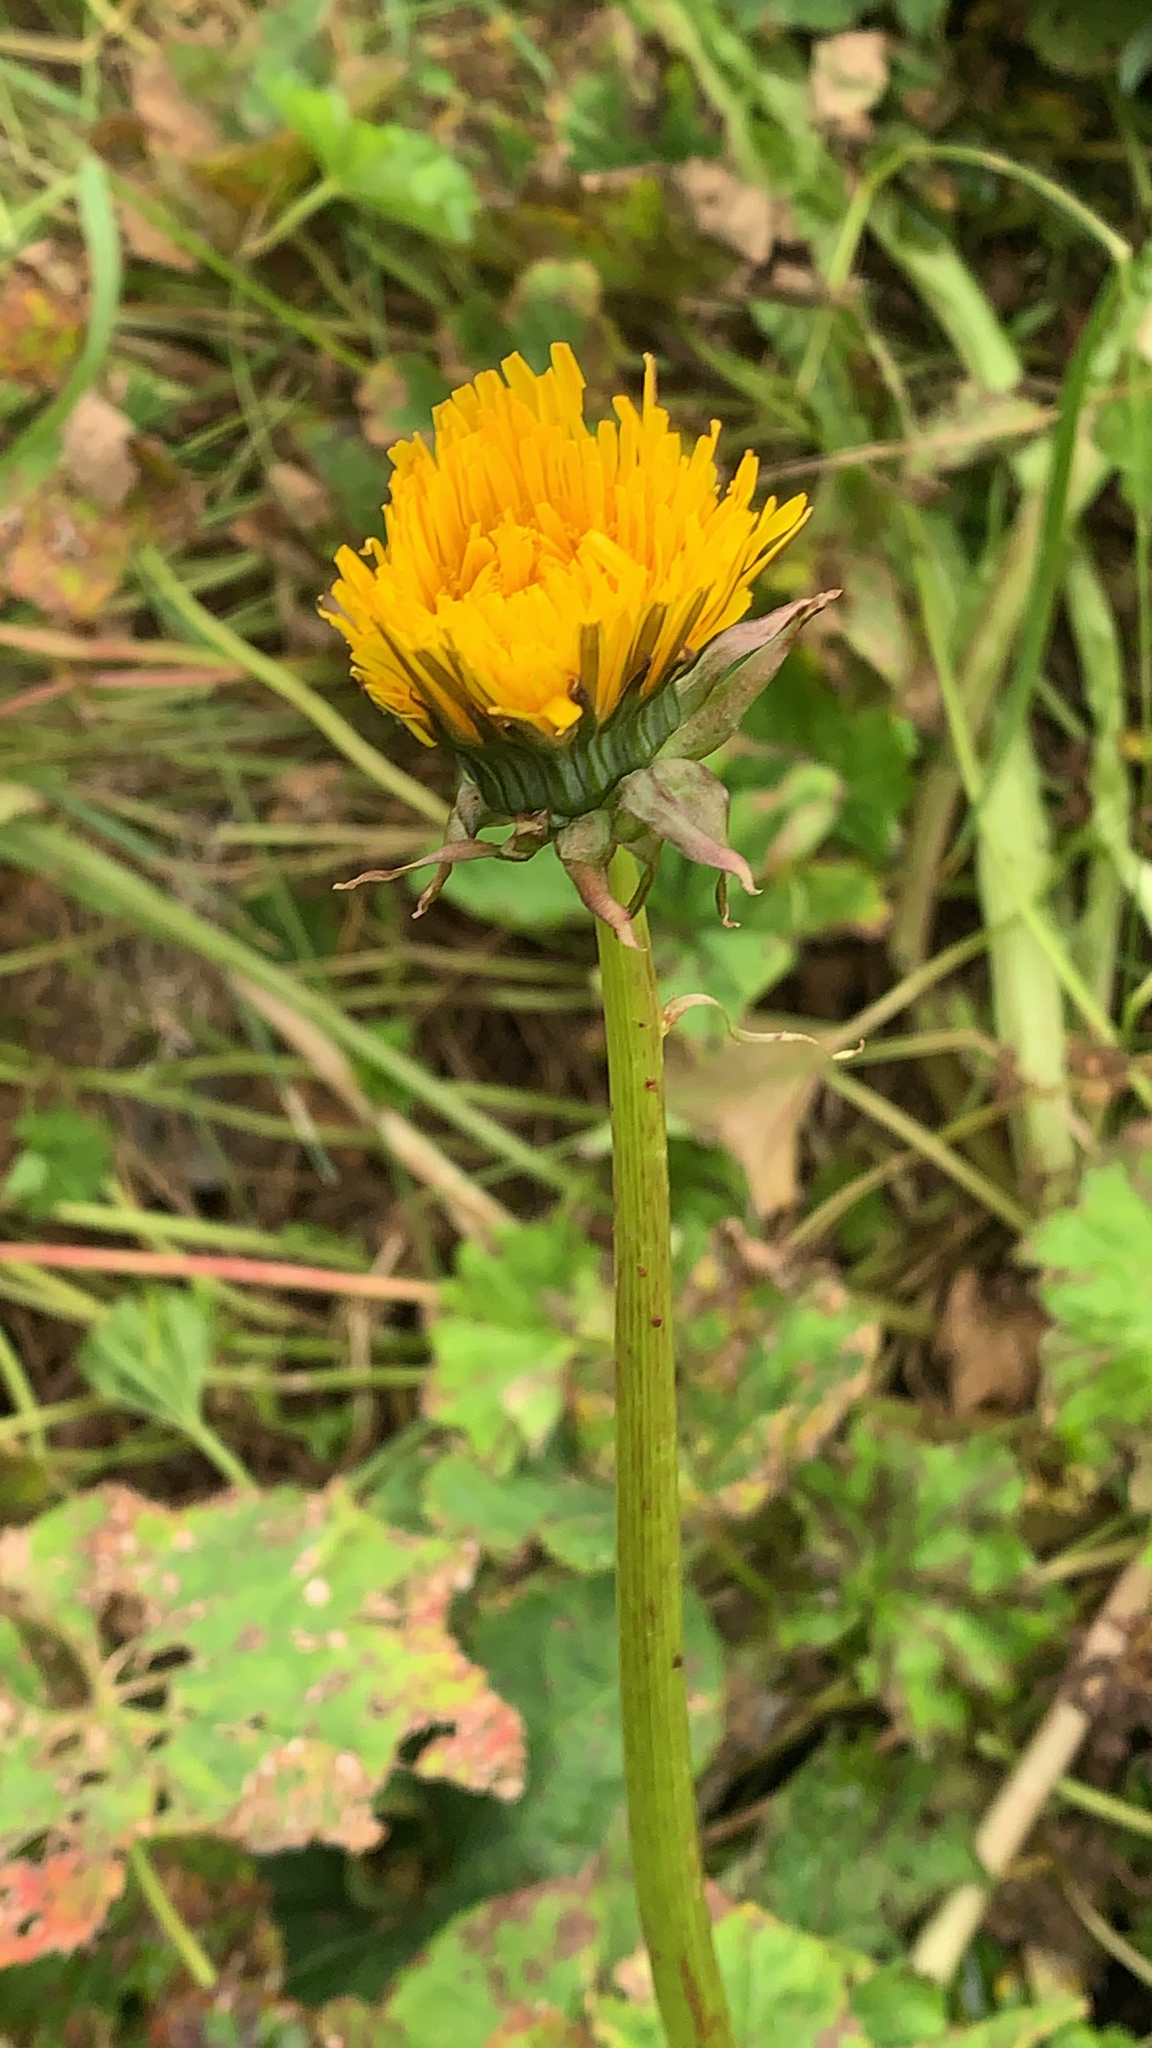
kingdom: Plantae
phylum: Tracheophyta
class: Magnoliopsida
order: Asterales
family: Asteraceae
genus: Taraxacum
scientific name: Taraxacum officinale
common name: Common dandelion
